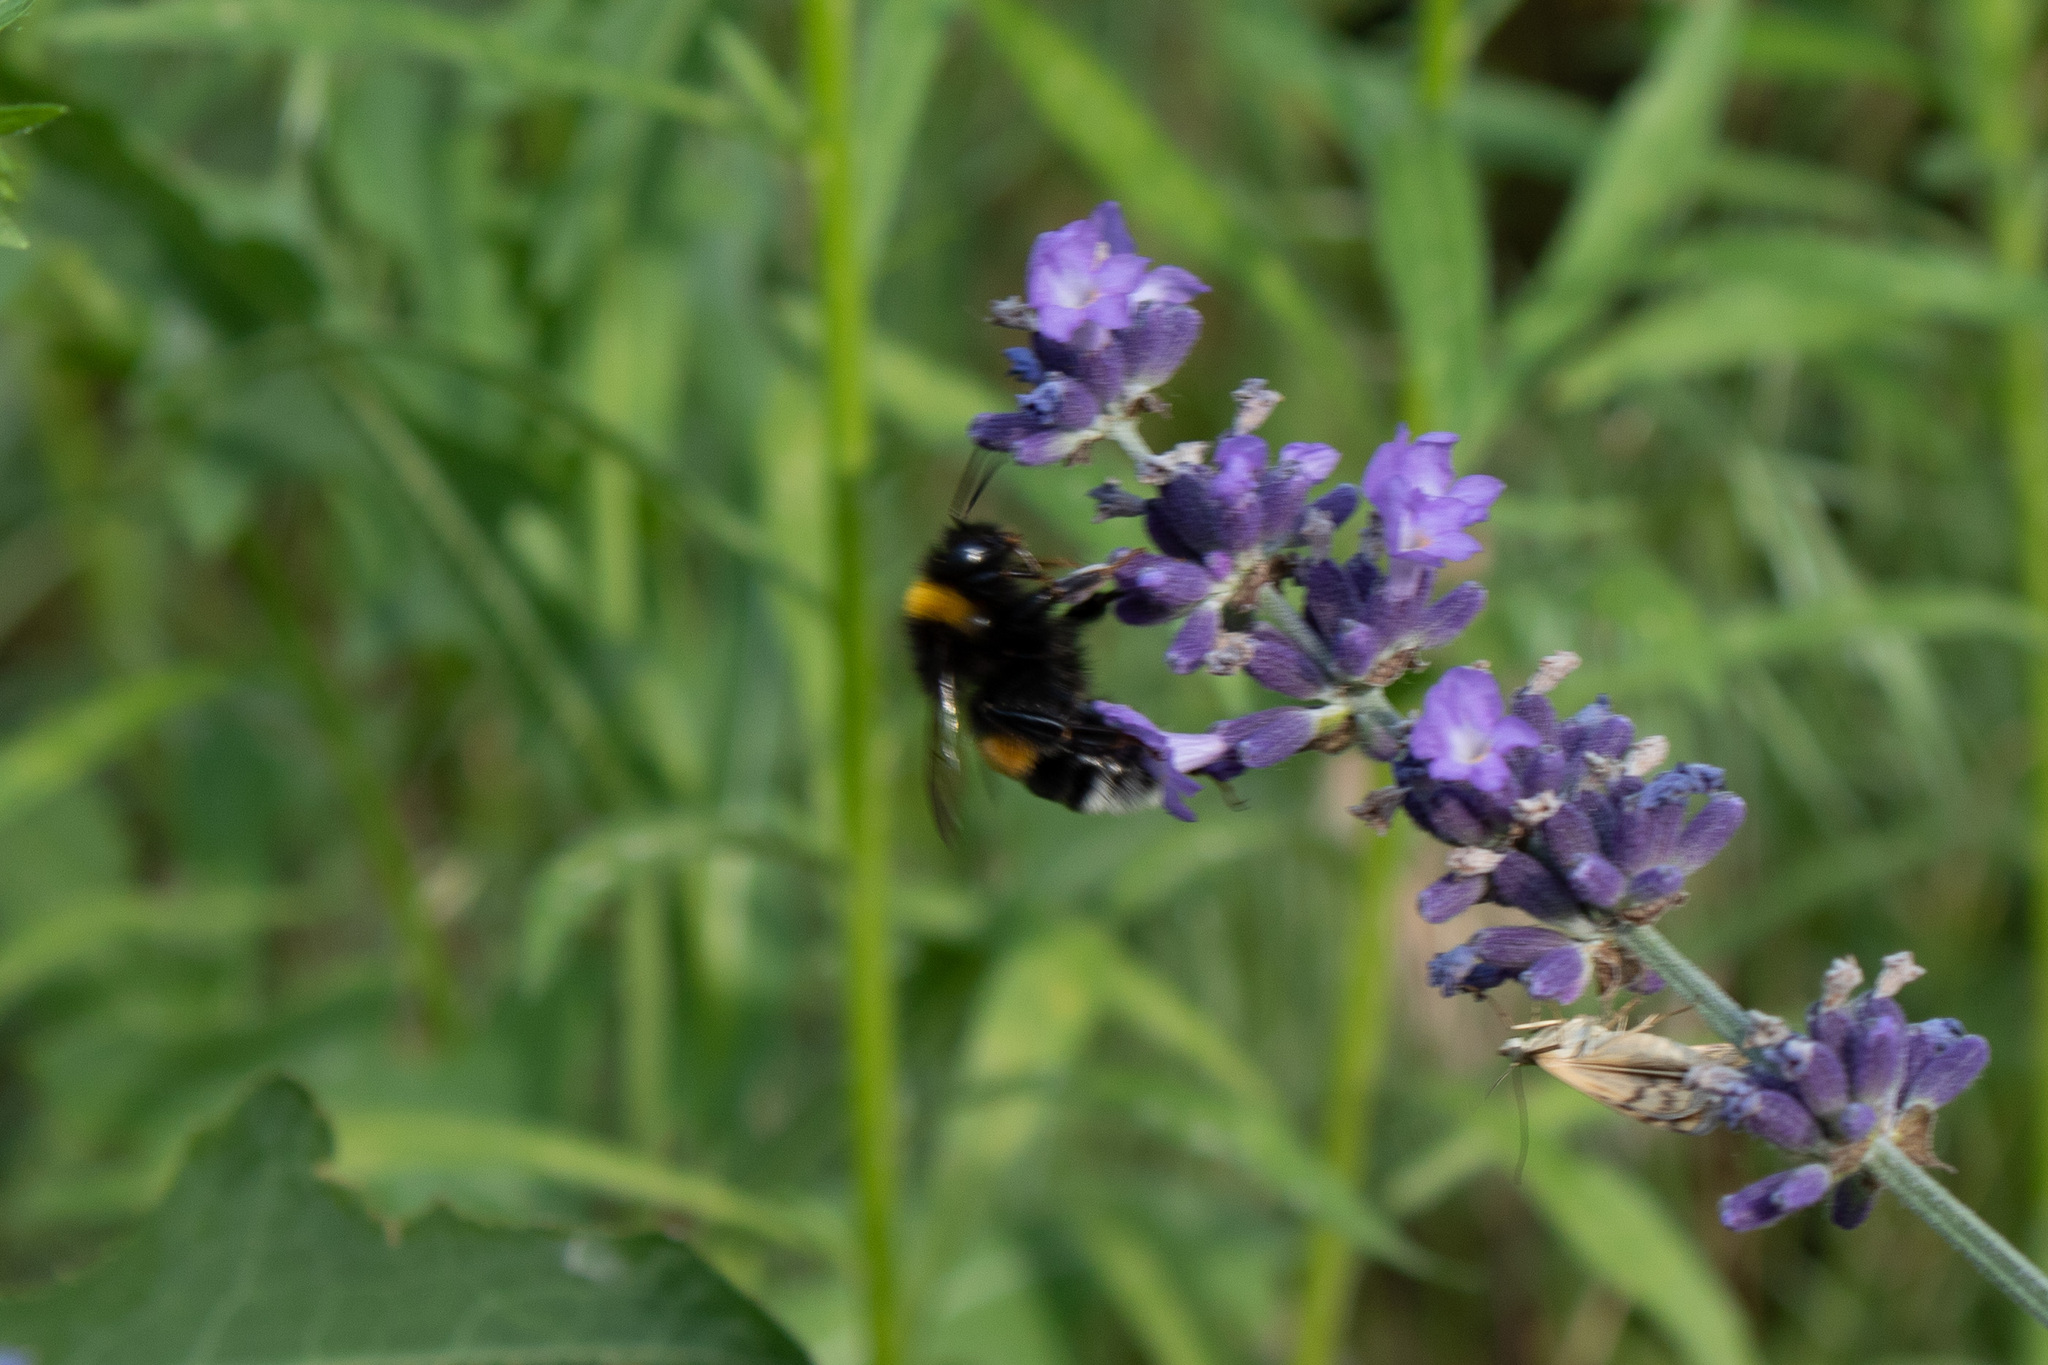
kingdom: Animalia
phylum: Arthropoda
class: Insecta
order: Hymenoptera
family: Apidae
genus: Bombus
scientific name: Bombus
